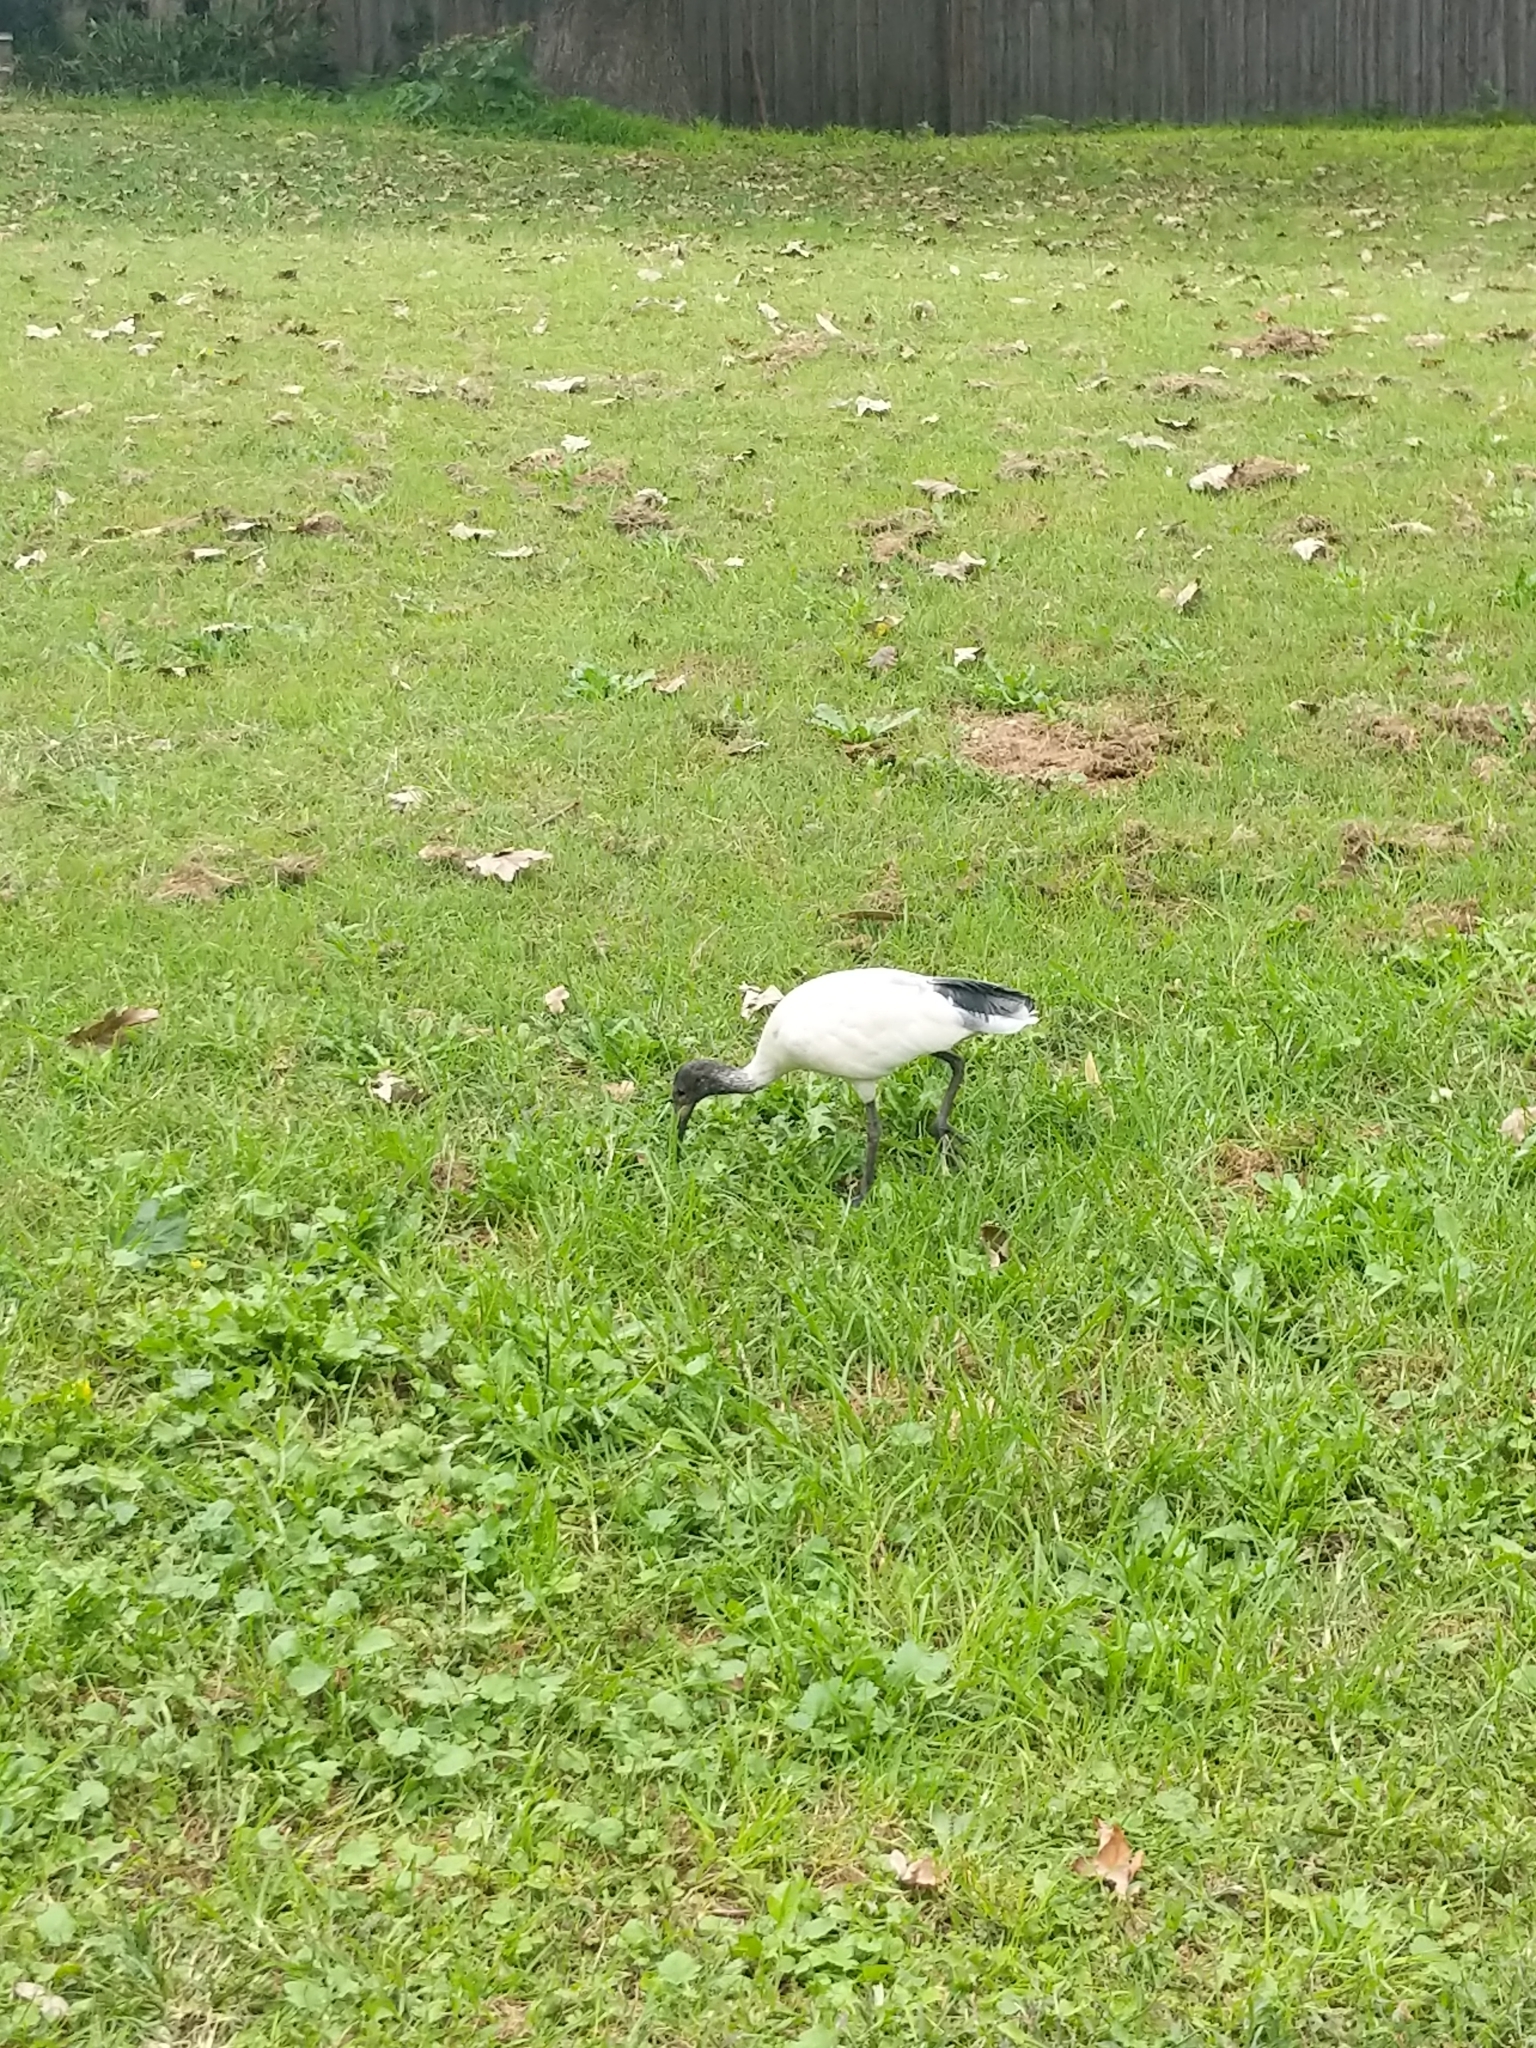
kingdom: Animalia
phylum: Chordata
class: Aves
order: Pelecaniformes
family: Threskiornithidae
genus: Threskiornis
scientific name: Threskiornis molucca
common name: Australian white ibis
